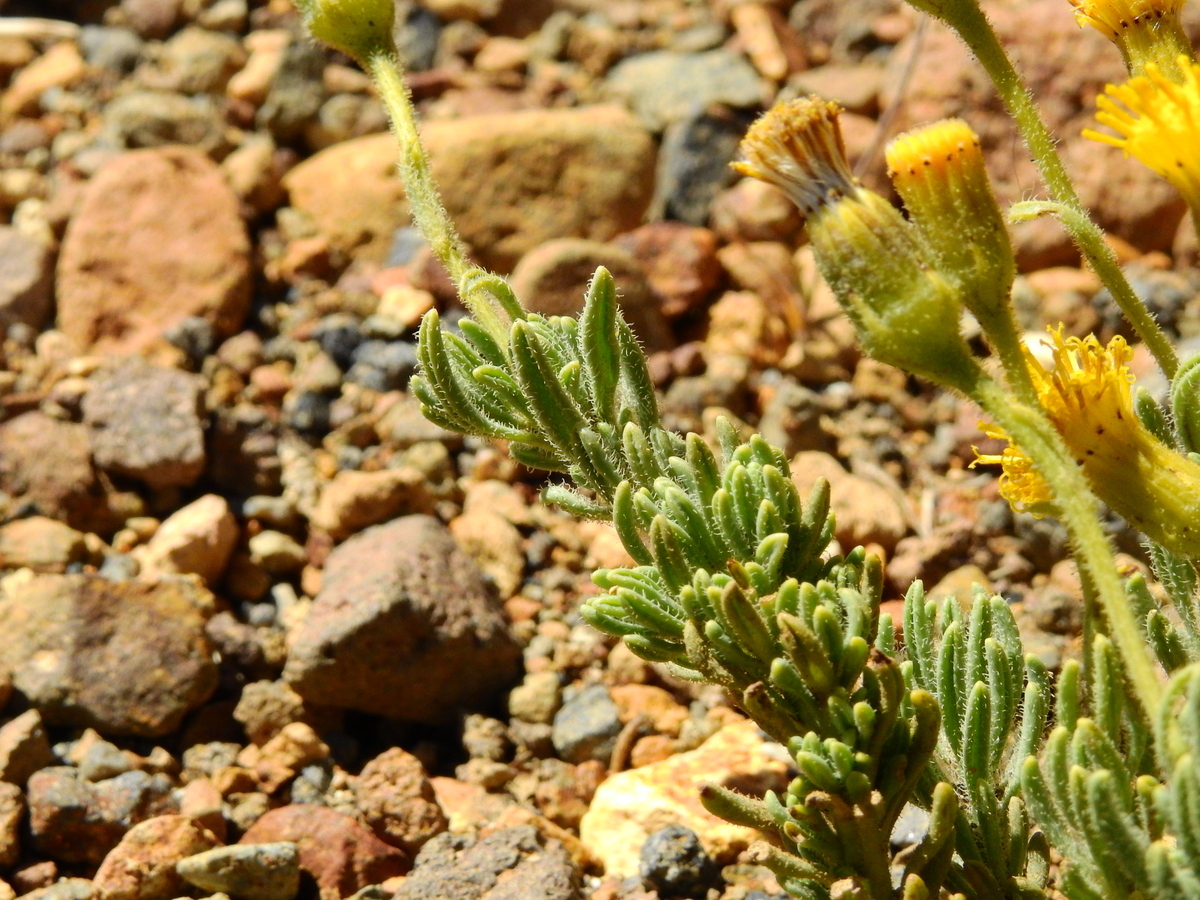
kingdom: Plantae
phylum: Tracheophyta
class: Magnoliopsida
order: Asterales
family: Asteraceae
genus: Senecio
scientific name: Senecio tristis
